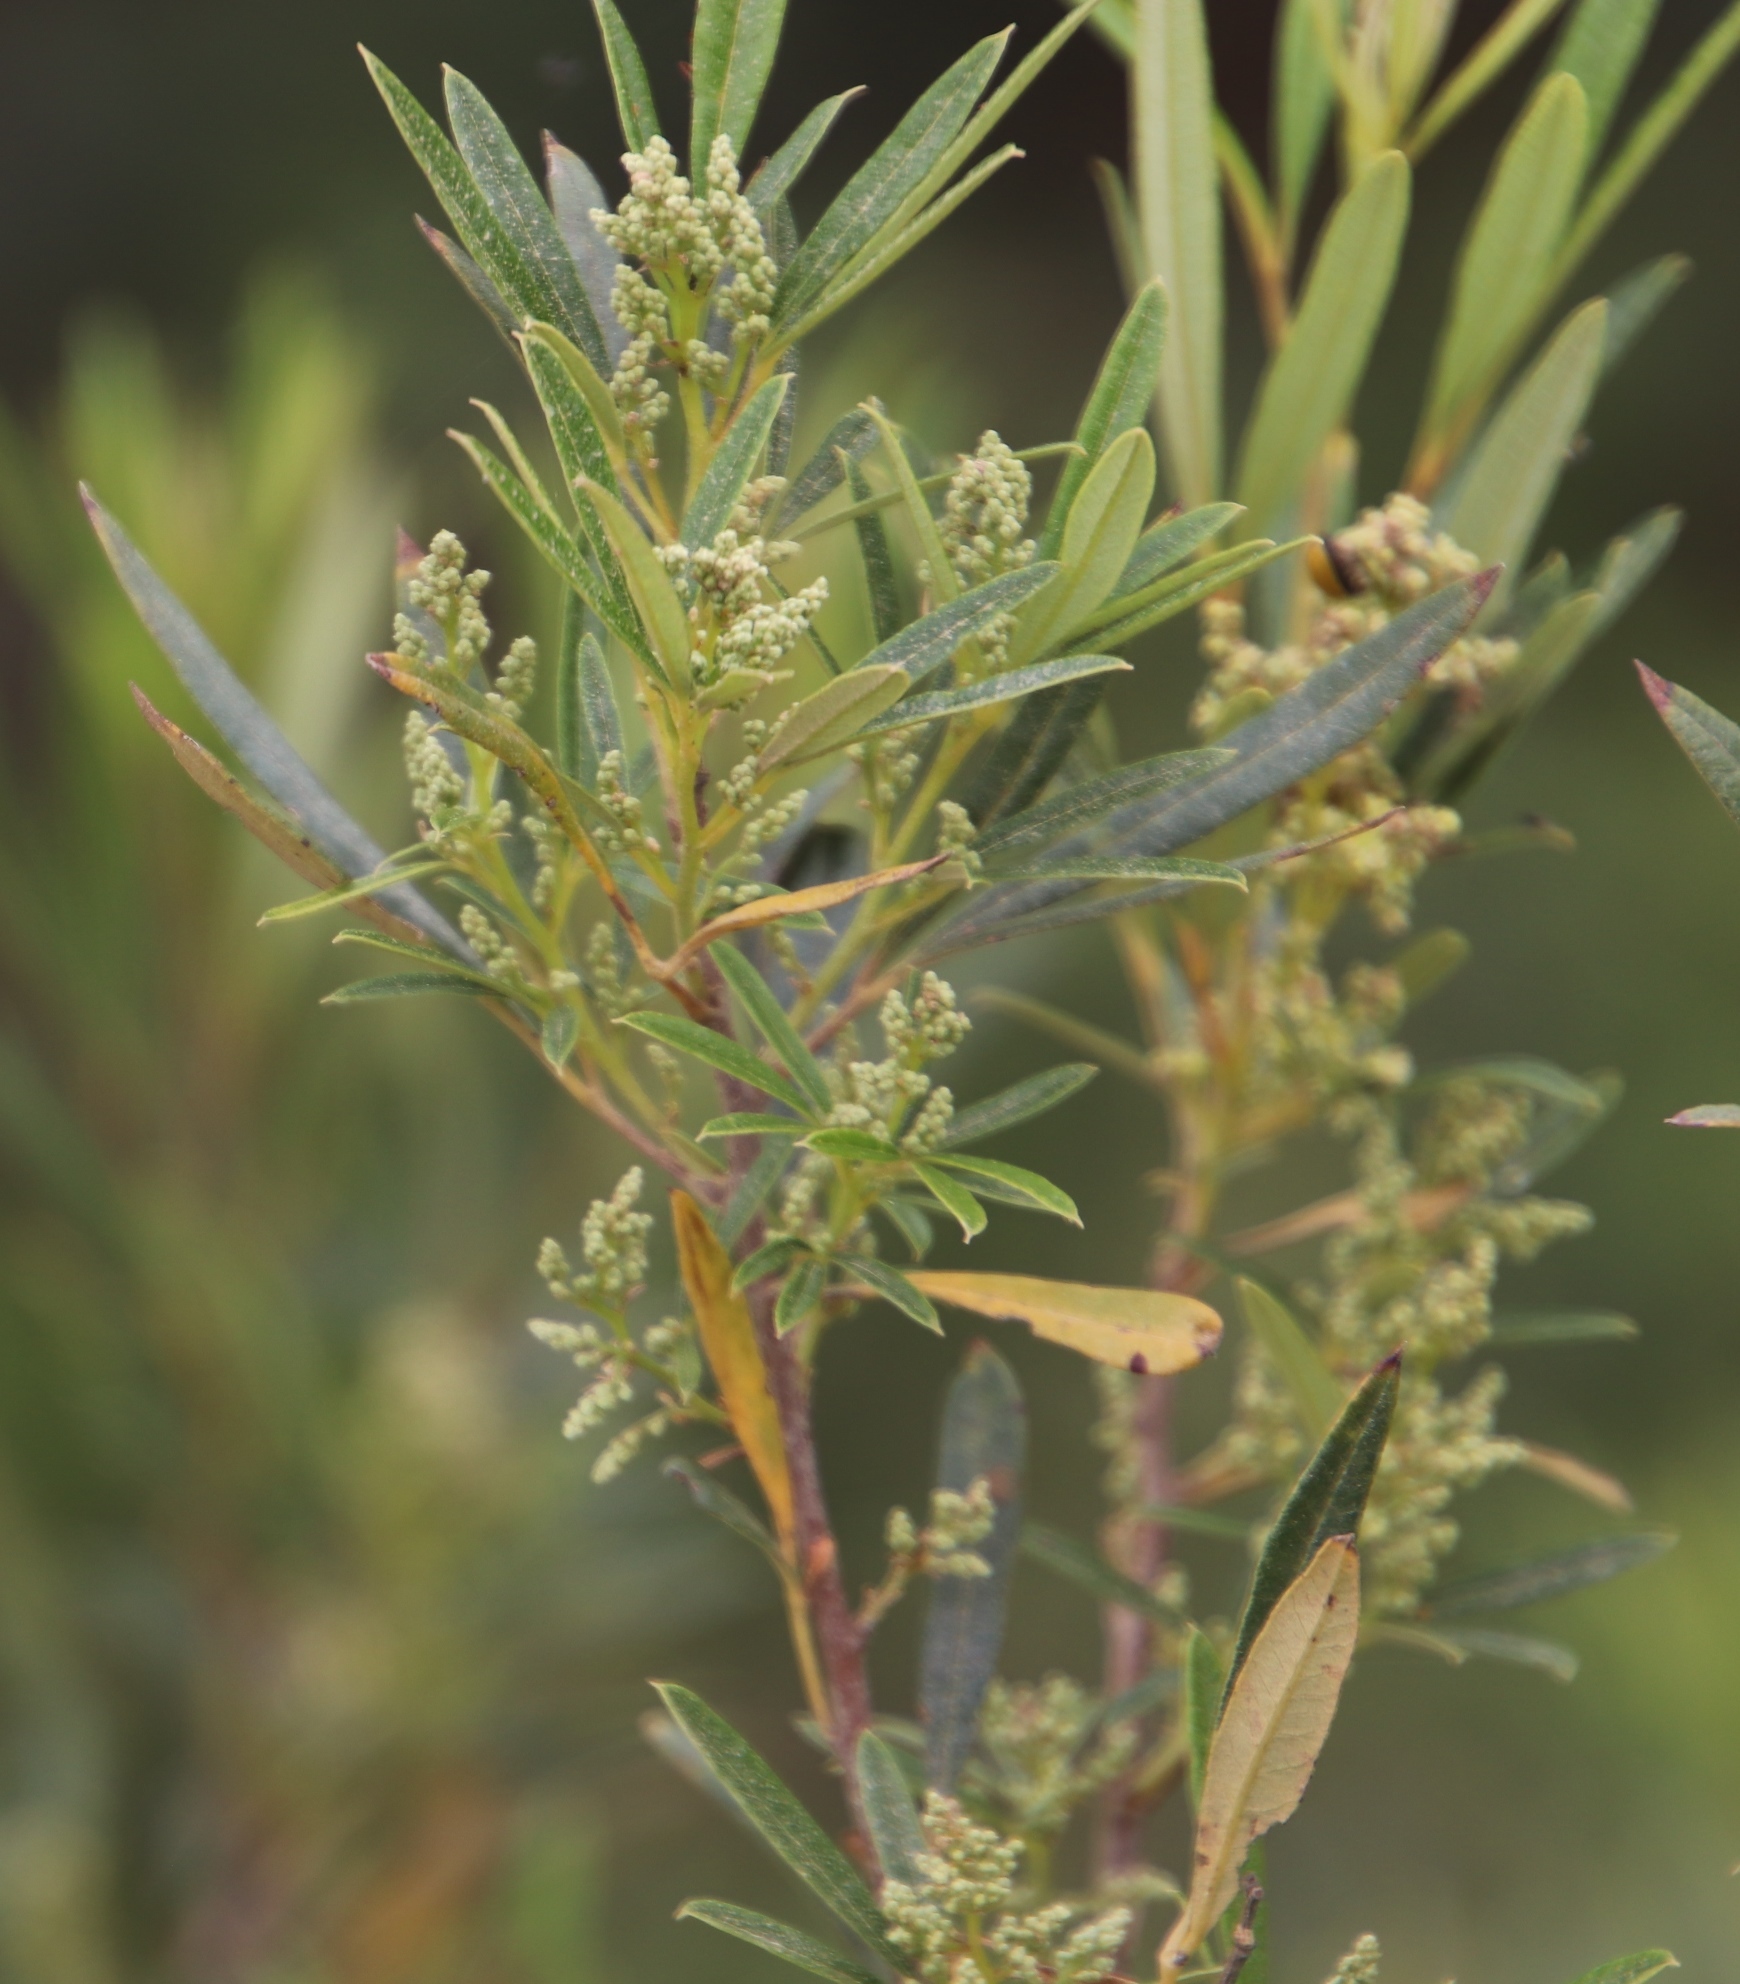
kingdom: Plantae
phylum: Tracheophyta
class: Magnoliopsida
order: Sapindales
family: Anacardiaceae
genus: Searsia
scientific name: Searsia angustifolia
